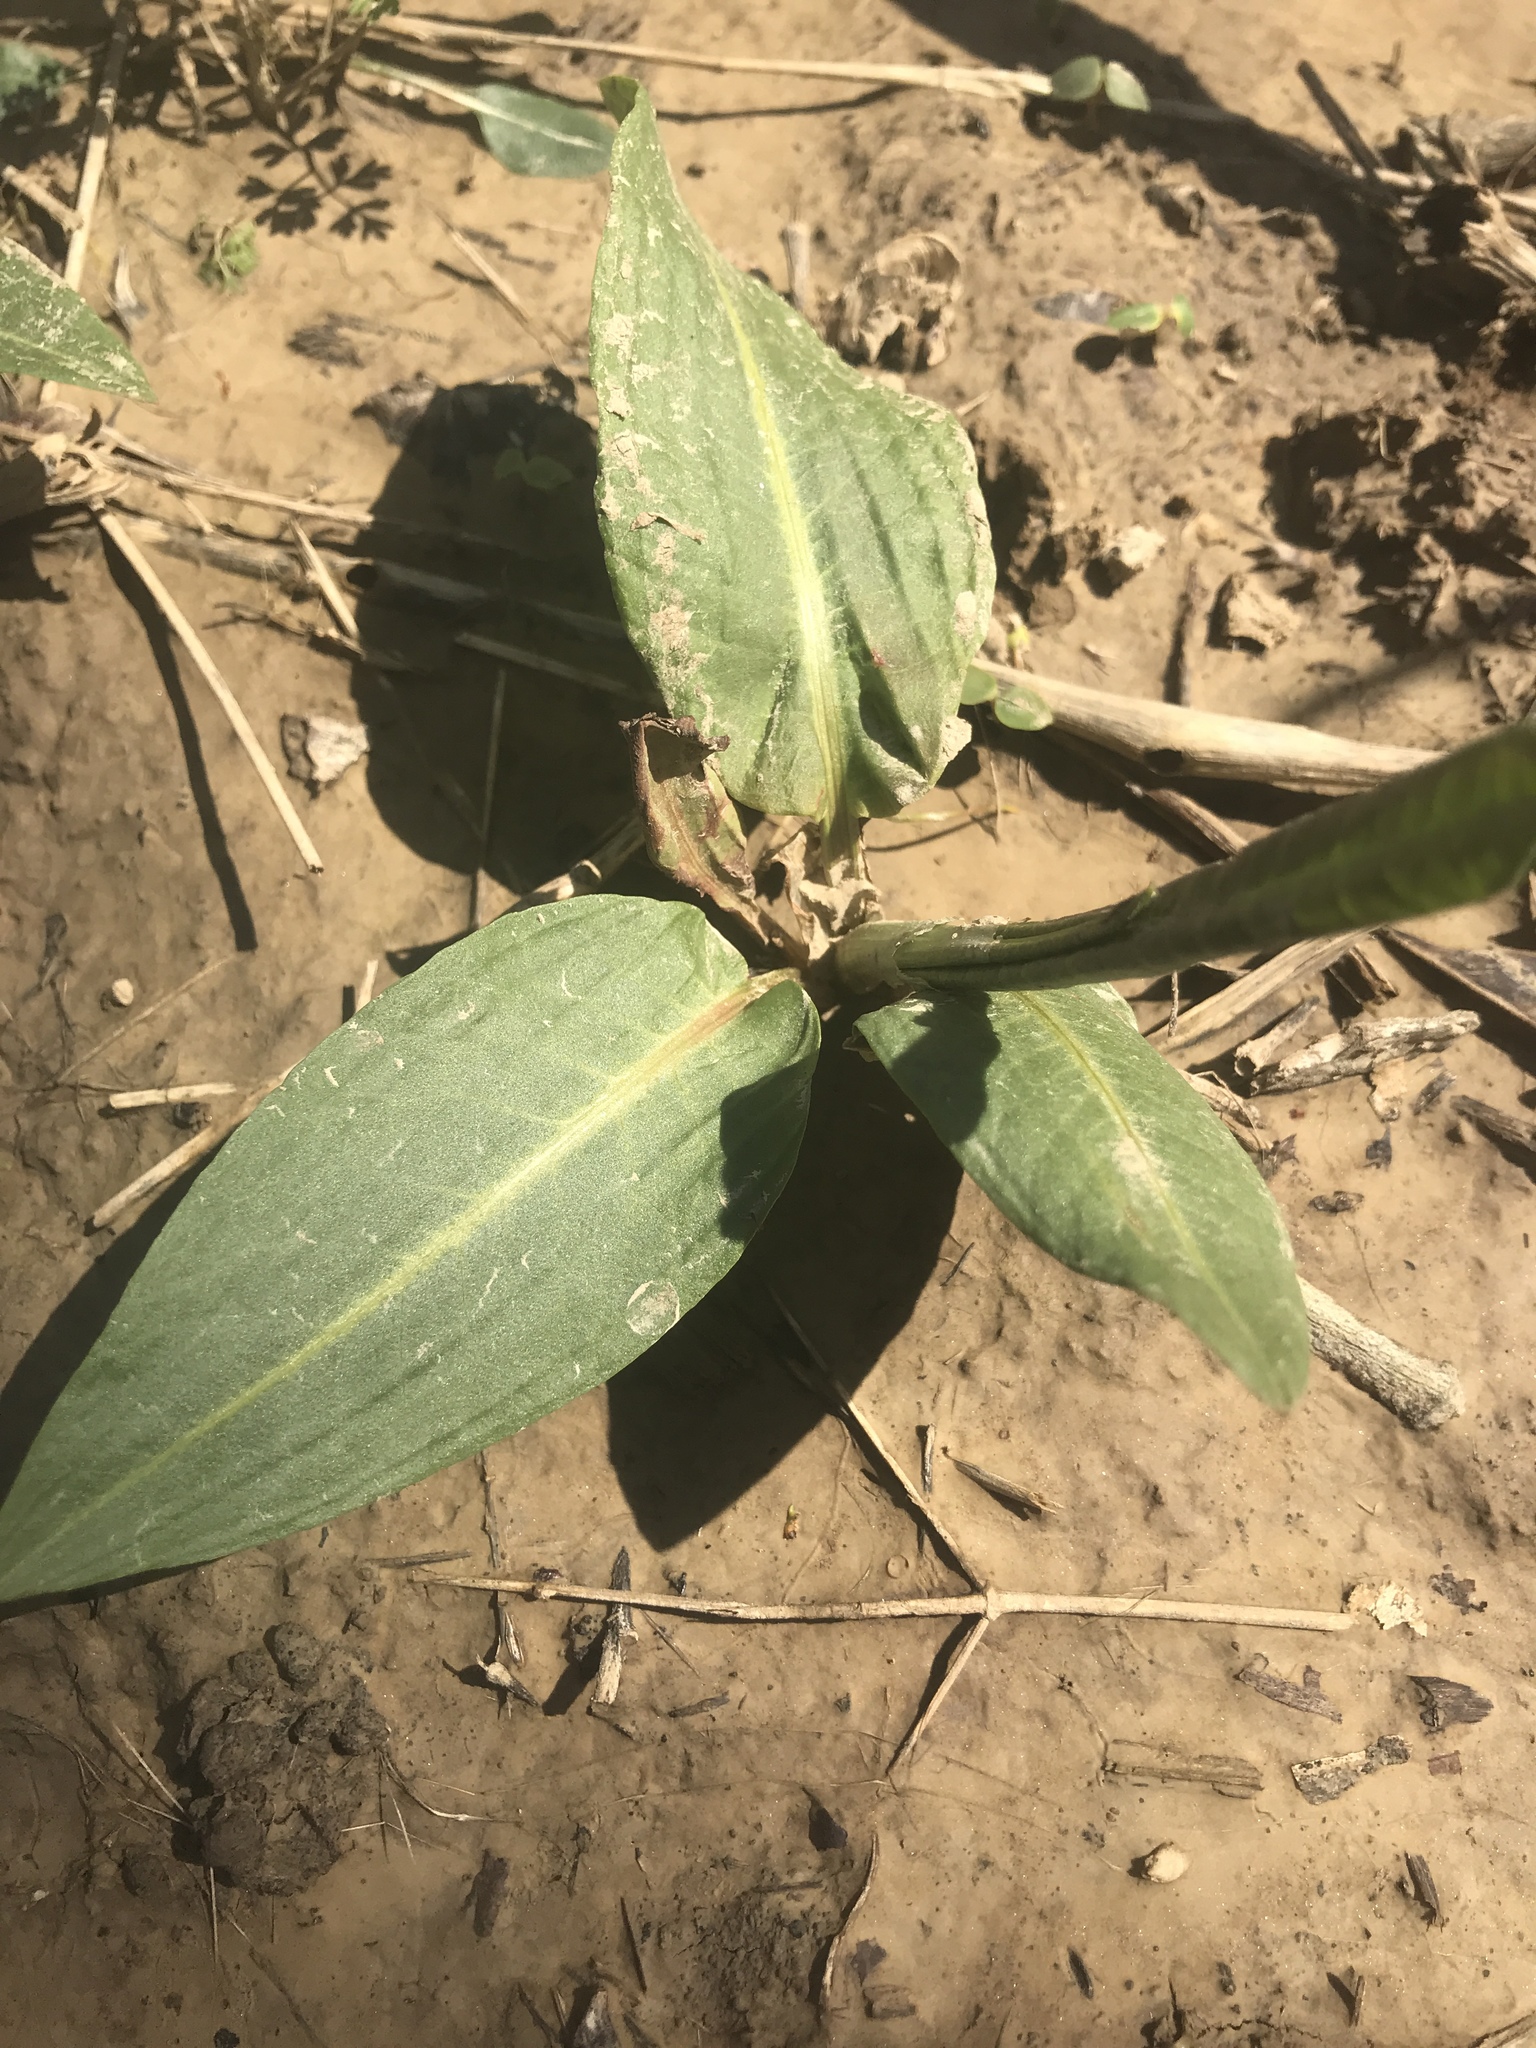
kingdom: Plantae
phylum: Tracheophyta
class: Liliopsida
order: Commelinales
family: Commelinaceae
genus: Commelina
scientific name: Commelina virginica
